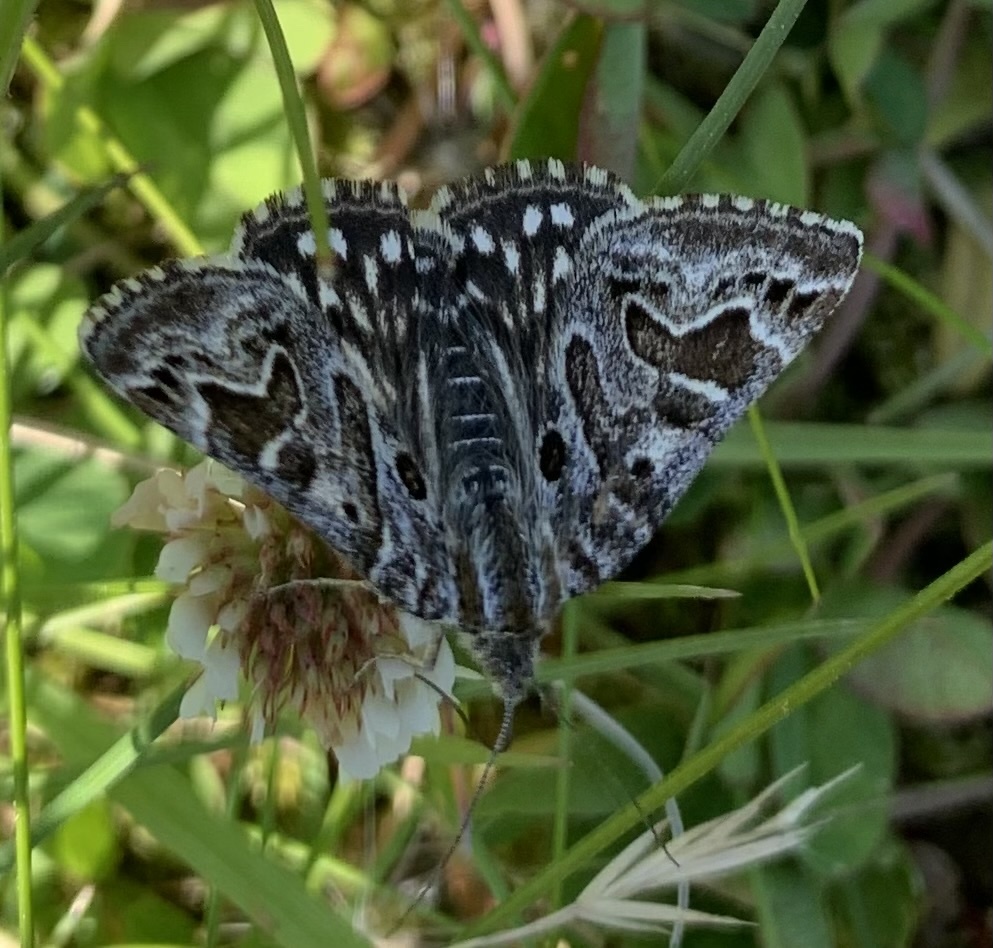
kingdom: Animalia
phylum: Arthropoda
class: Insecta
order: Lepidoptera
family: Erebidae
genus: Callistege
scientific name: Callistege mi
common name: Mother shipton
